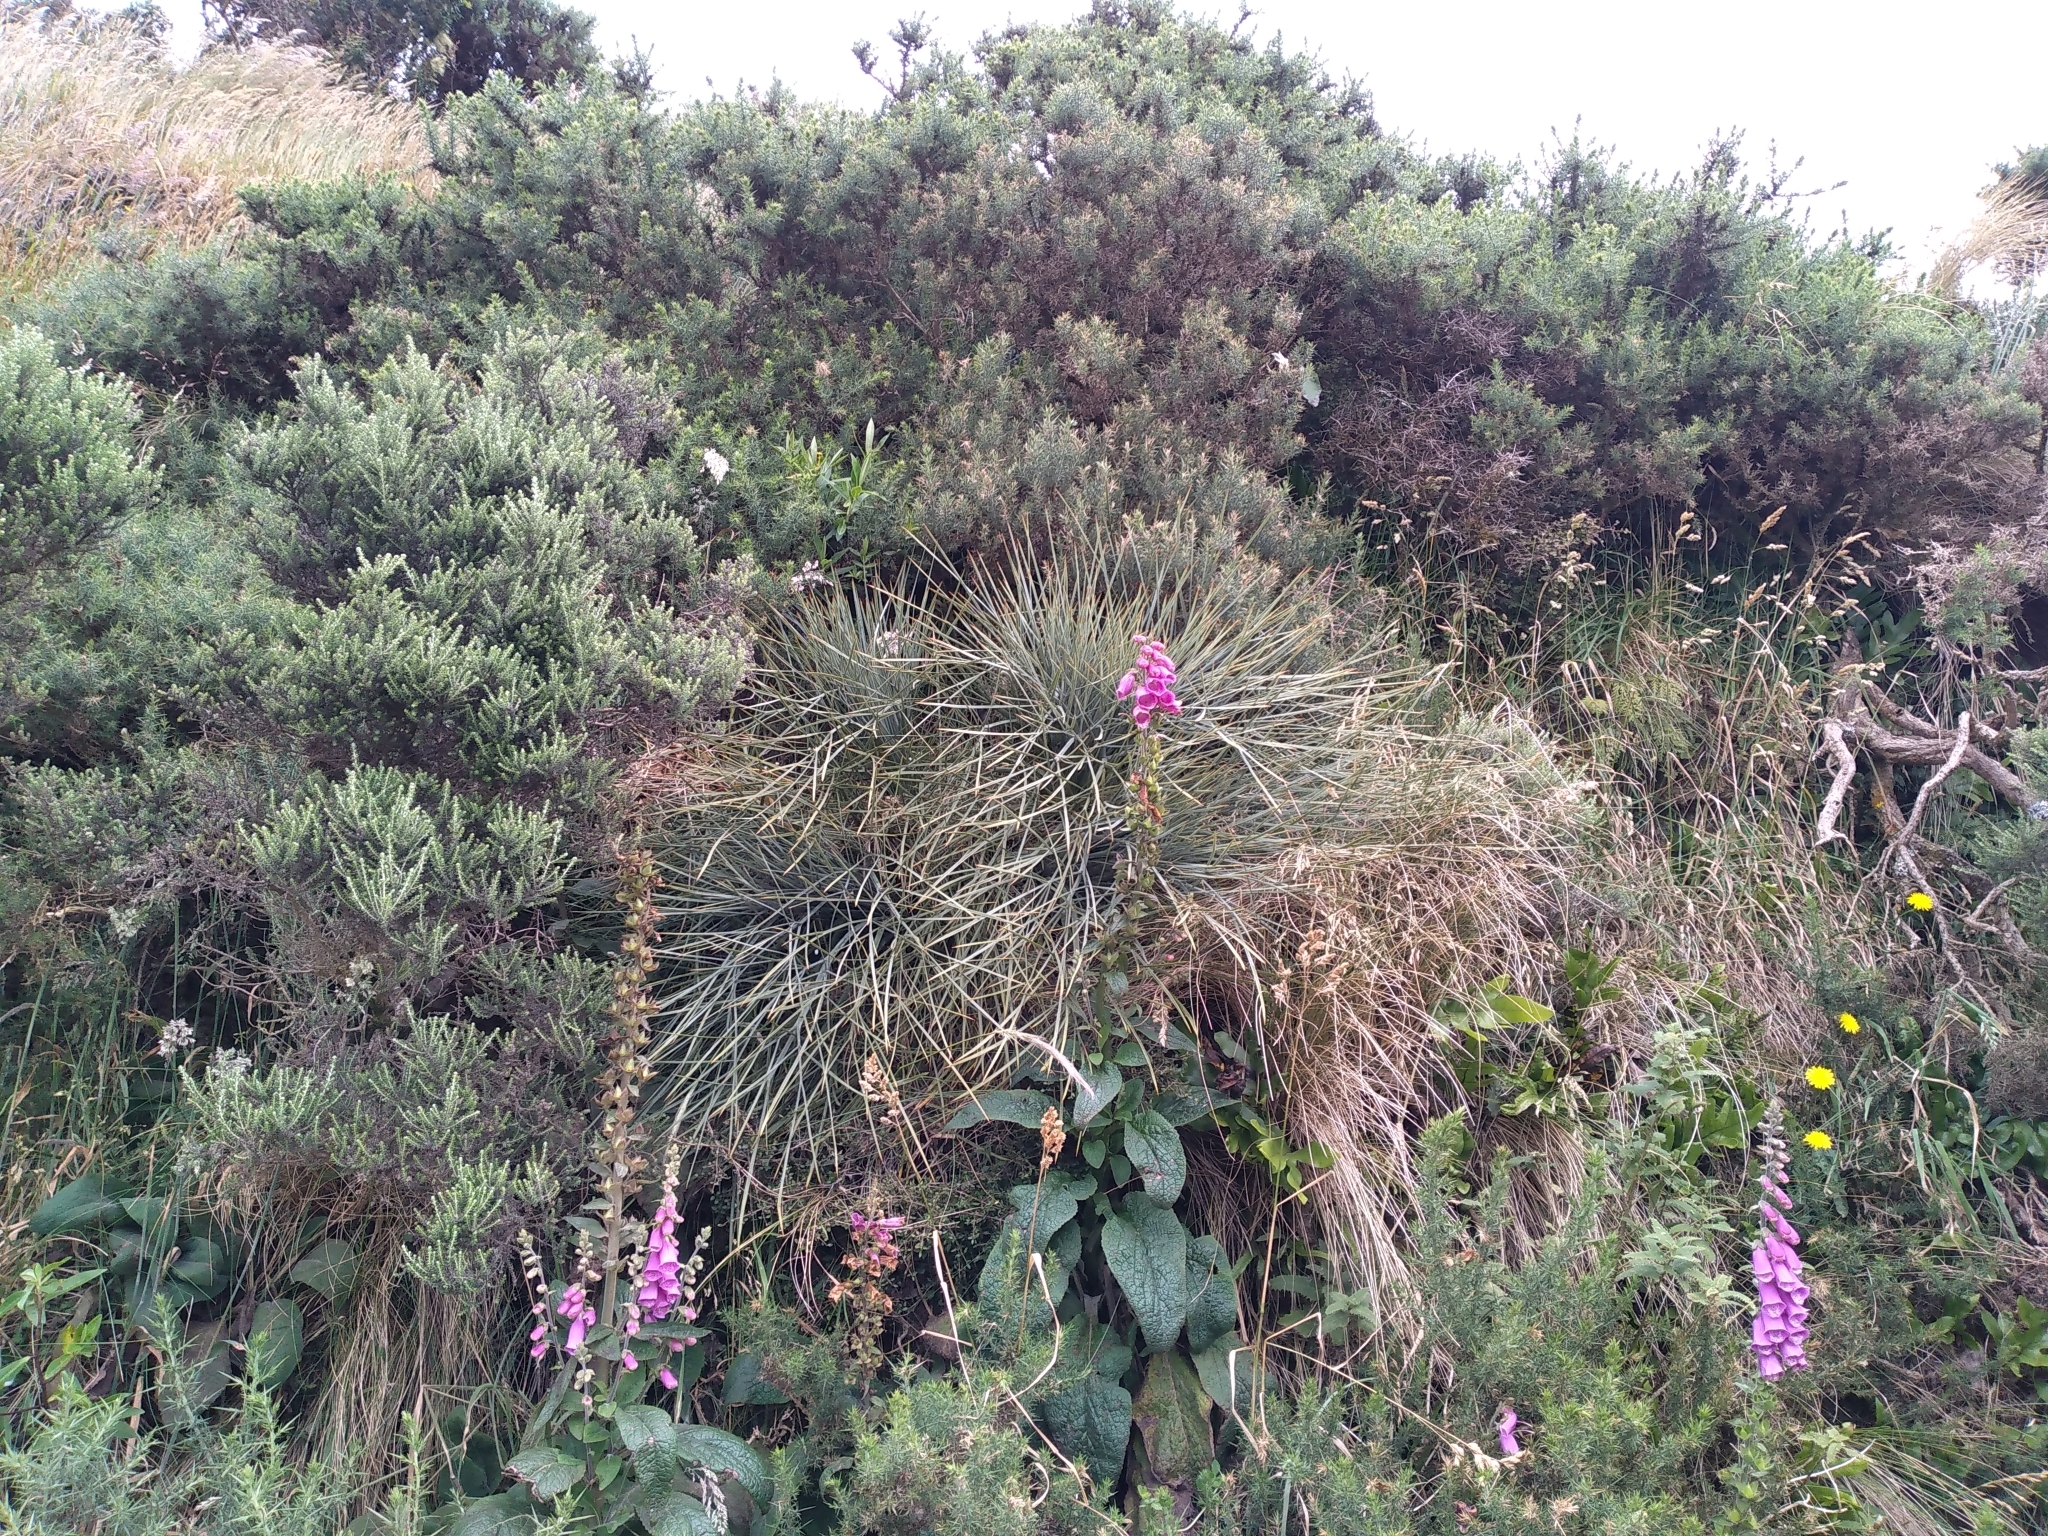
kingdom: Plantae
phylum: Tracheophyta
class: Magnoliopsida
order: Apiales
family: Apiaceae
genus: Aciphylla
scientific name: Aciphylla squarrosa
